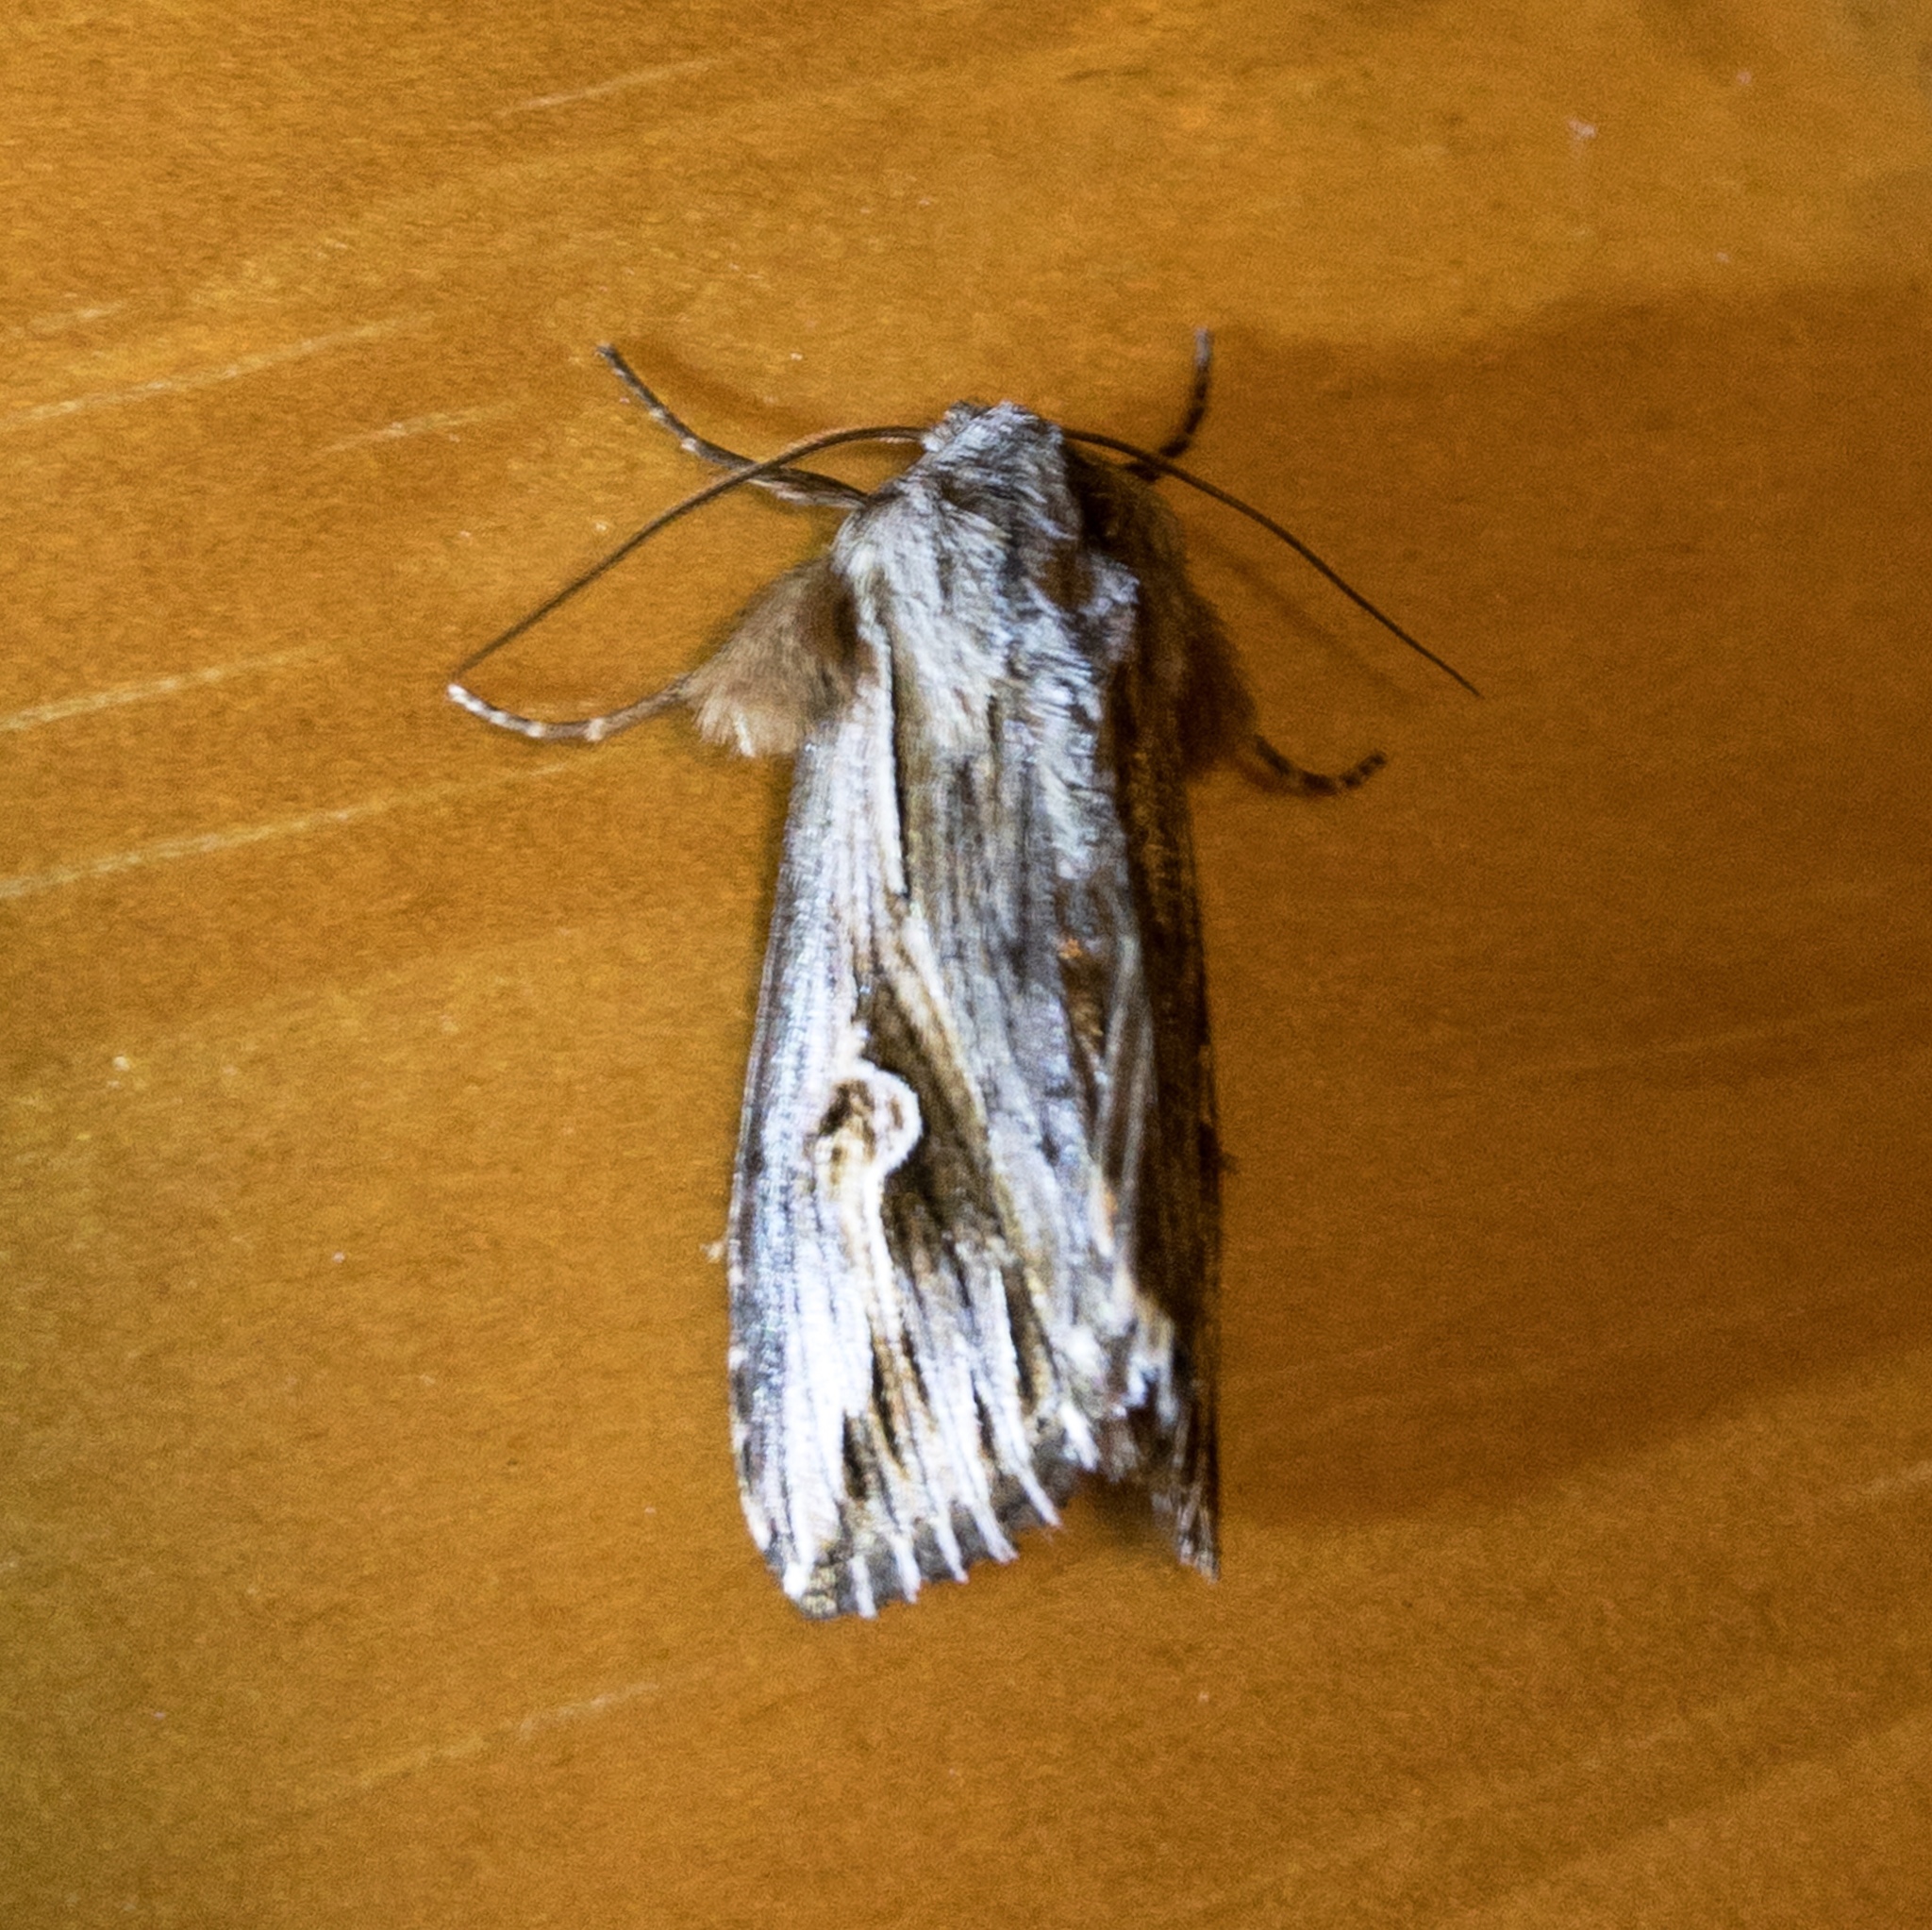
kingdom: Animalia
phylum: Arthropoda
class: Insecta
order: Lepidoptera
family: Noctuidae
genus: Nedra
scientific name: Nedra ramosula
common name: Gray half-spot
